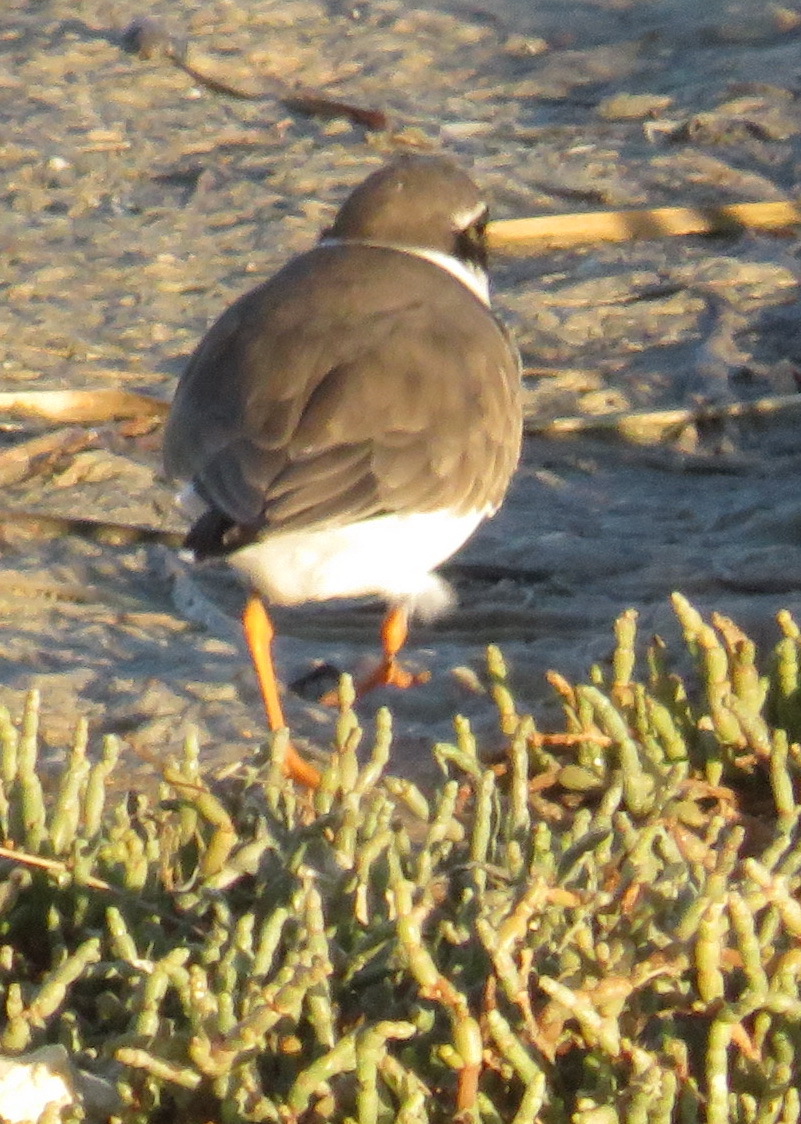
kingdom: Animalia
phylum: Chordata
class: Aves
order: Charadriiformes
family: Charadriidae
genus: Charadrius
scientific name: Charadrius hiaticula
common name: Common ringed plover
